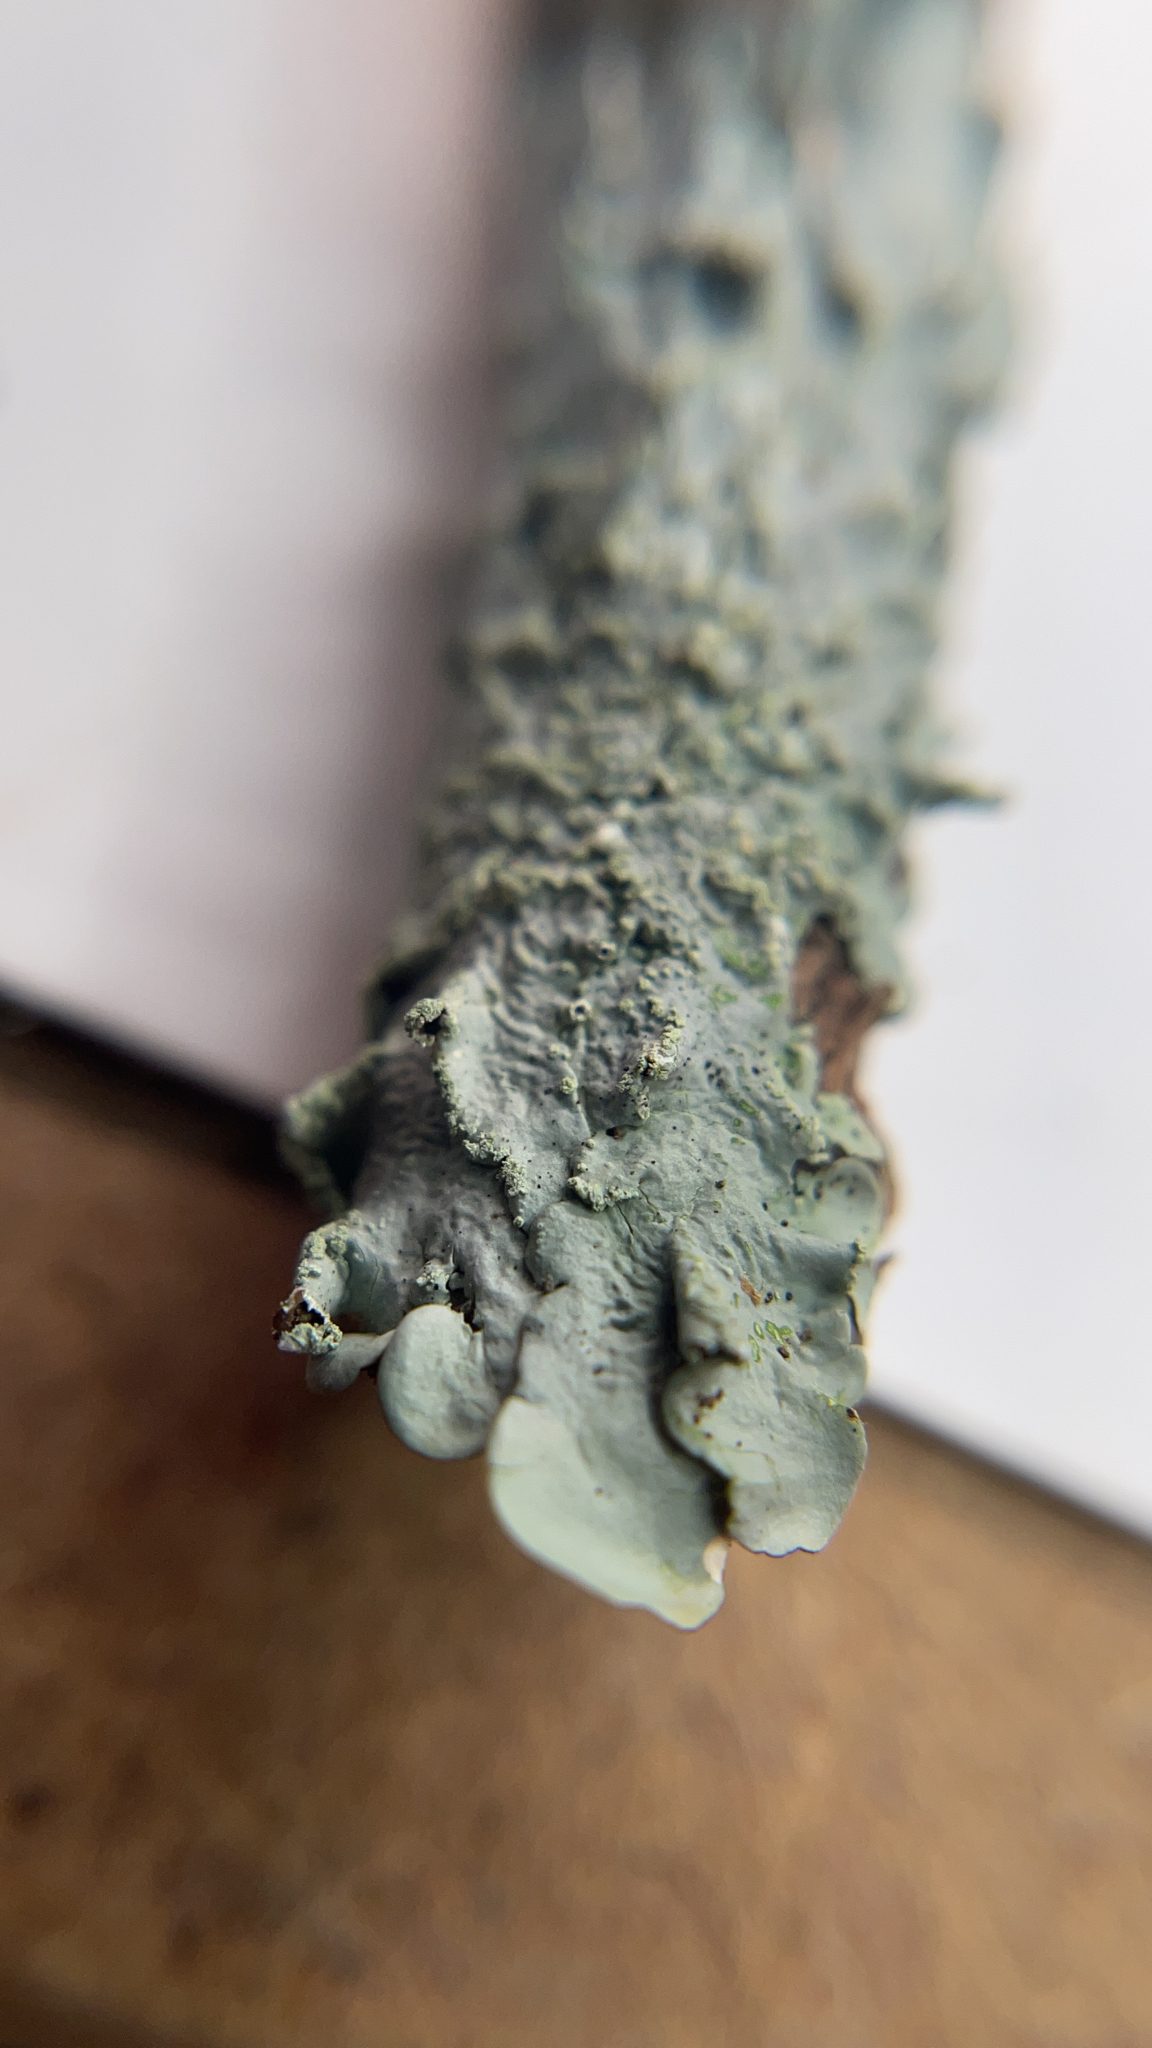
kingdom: Fungi
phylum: Ascomycota
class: Lecanoromycetes
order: Lecanorales
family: Parmeliaceae
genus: Flavoparmelia
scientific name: Flavoparmelia caperata
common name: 40-mile per hour lichen
